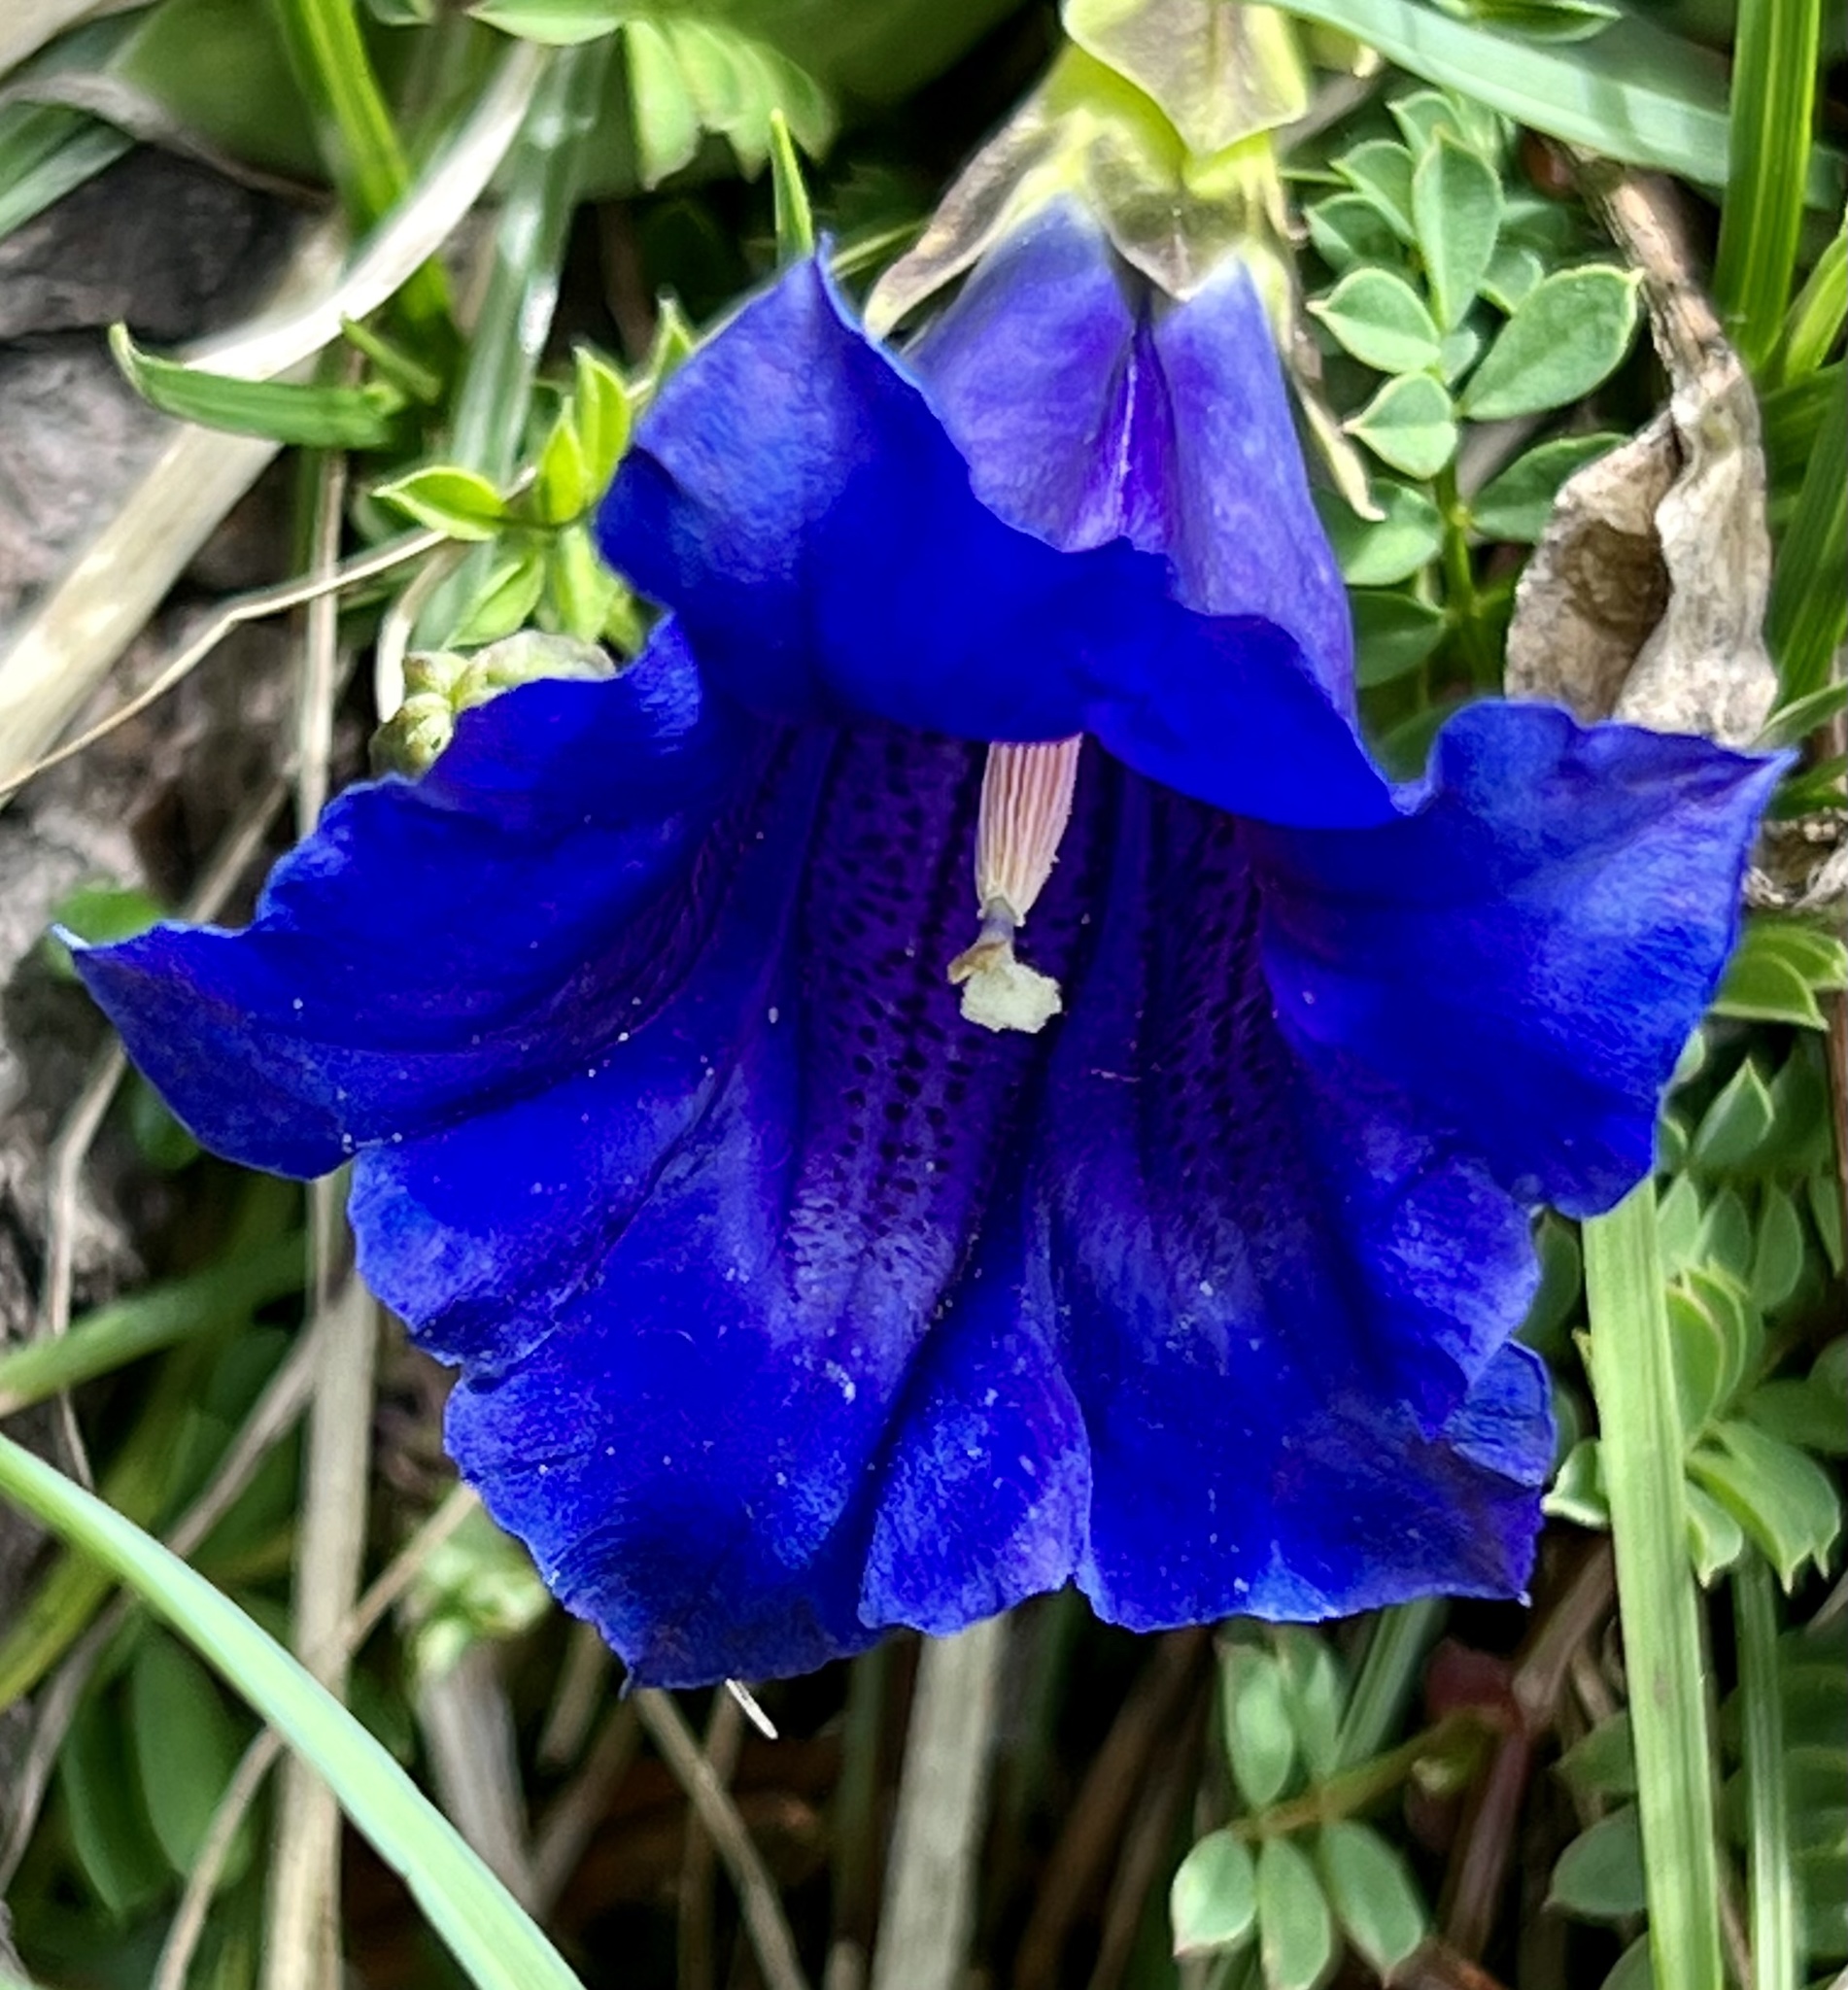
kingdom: Plantae
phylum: Tracheophyta
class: Magnoliopsida
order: Gentianales
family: Gentianaceae
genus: Gentiana
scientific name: Gentiana clusii
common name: Trumpet gentian
